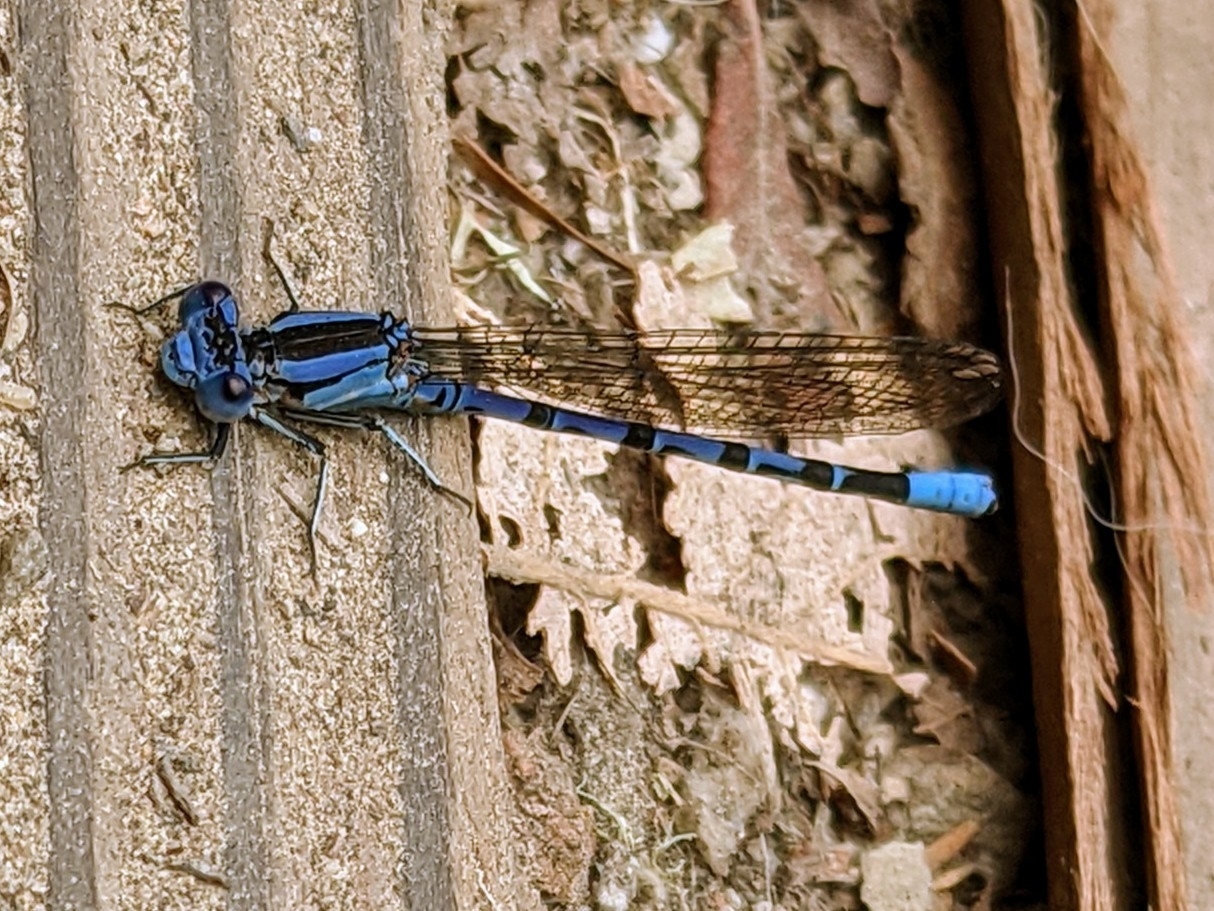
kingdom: Animalia
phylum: Arthropoda
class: Insecta
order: Odonata
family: Coenagrionidae
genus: Argia
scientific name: Argia vivida
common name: Vivid dancer
